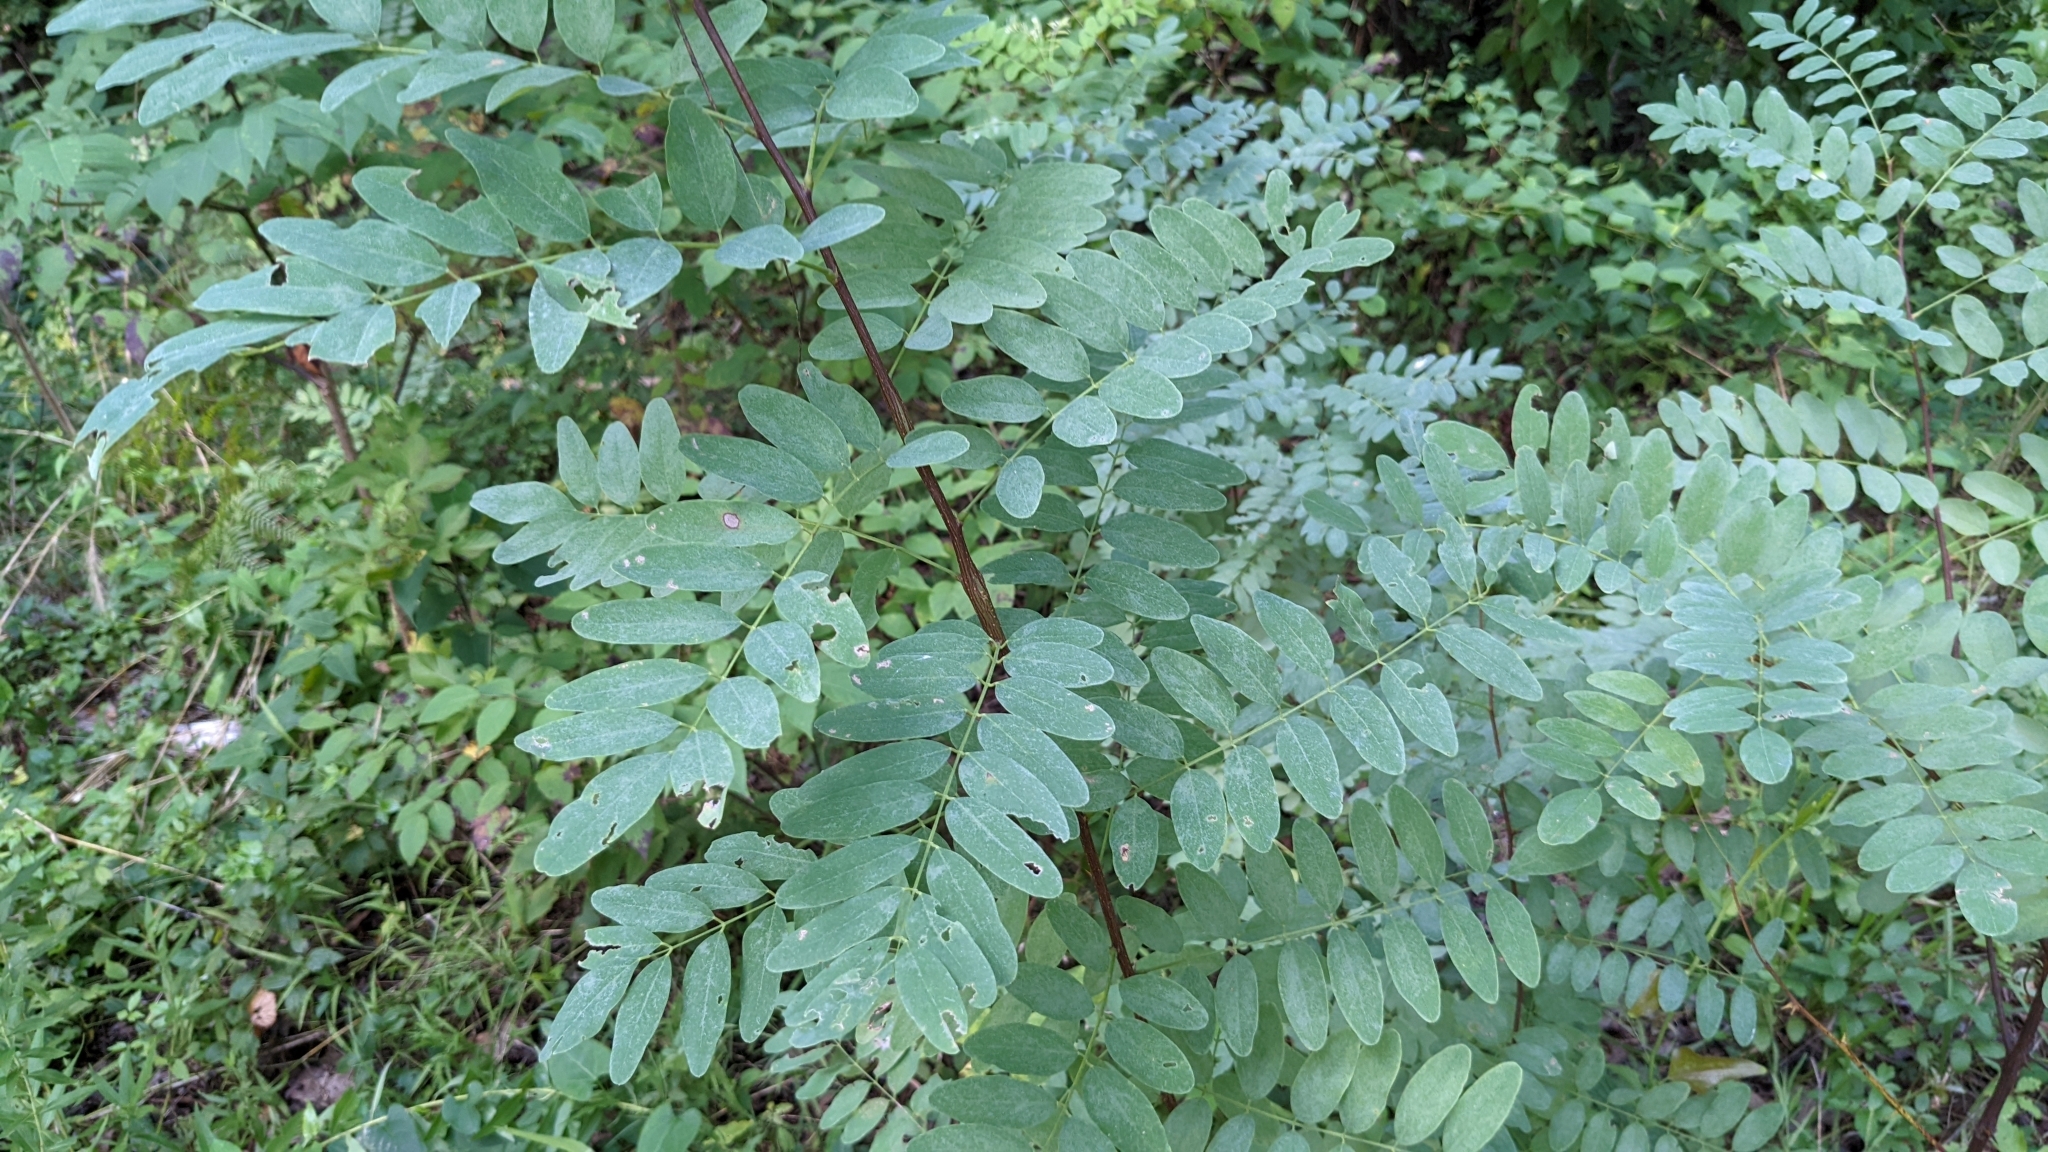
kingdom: Plantae
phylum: Tracheophyta
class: Magnoliopsida
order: Fabales
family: Fabaceae
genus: Robinia
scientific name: Robinia pseudoacacia
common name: Black locust
